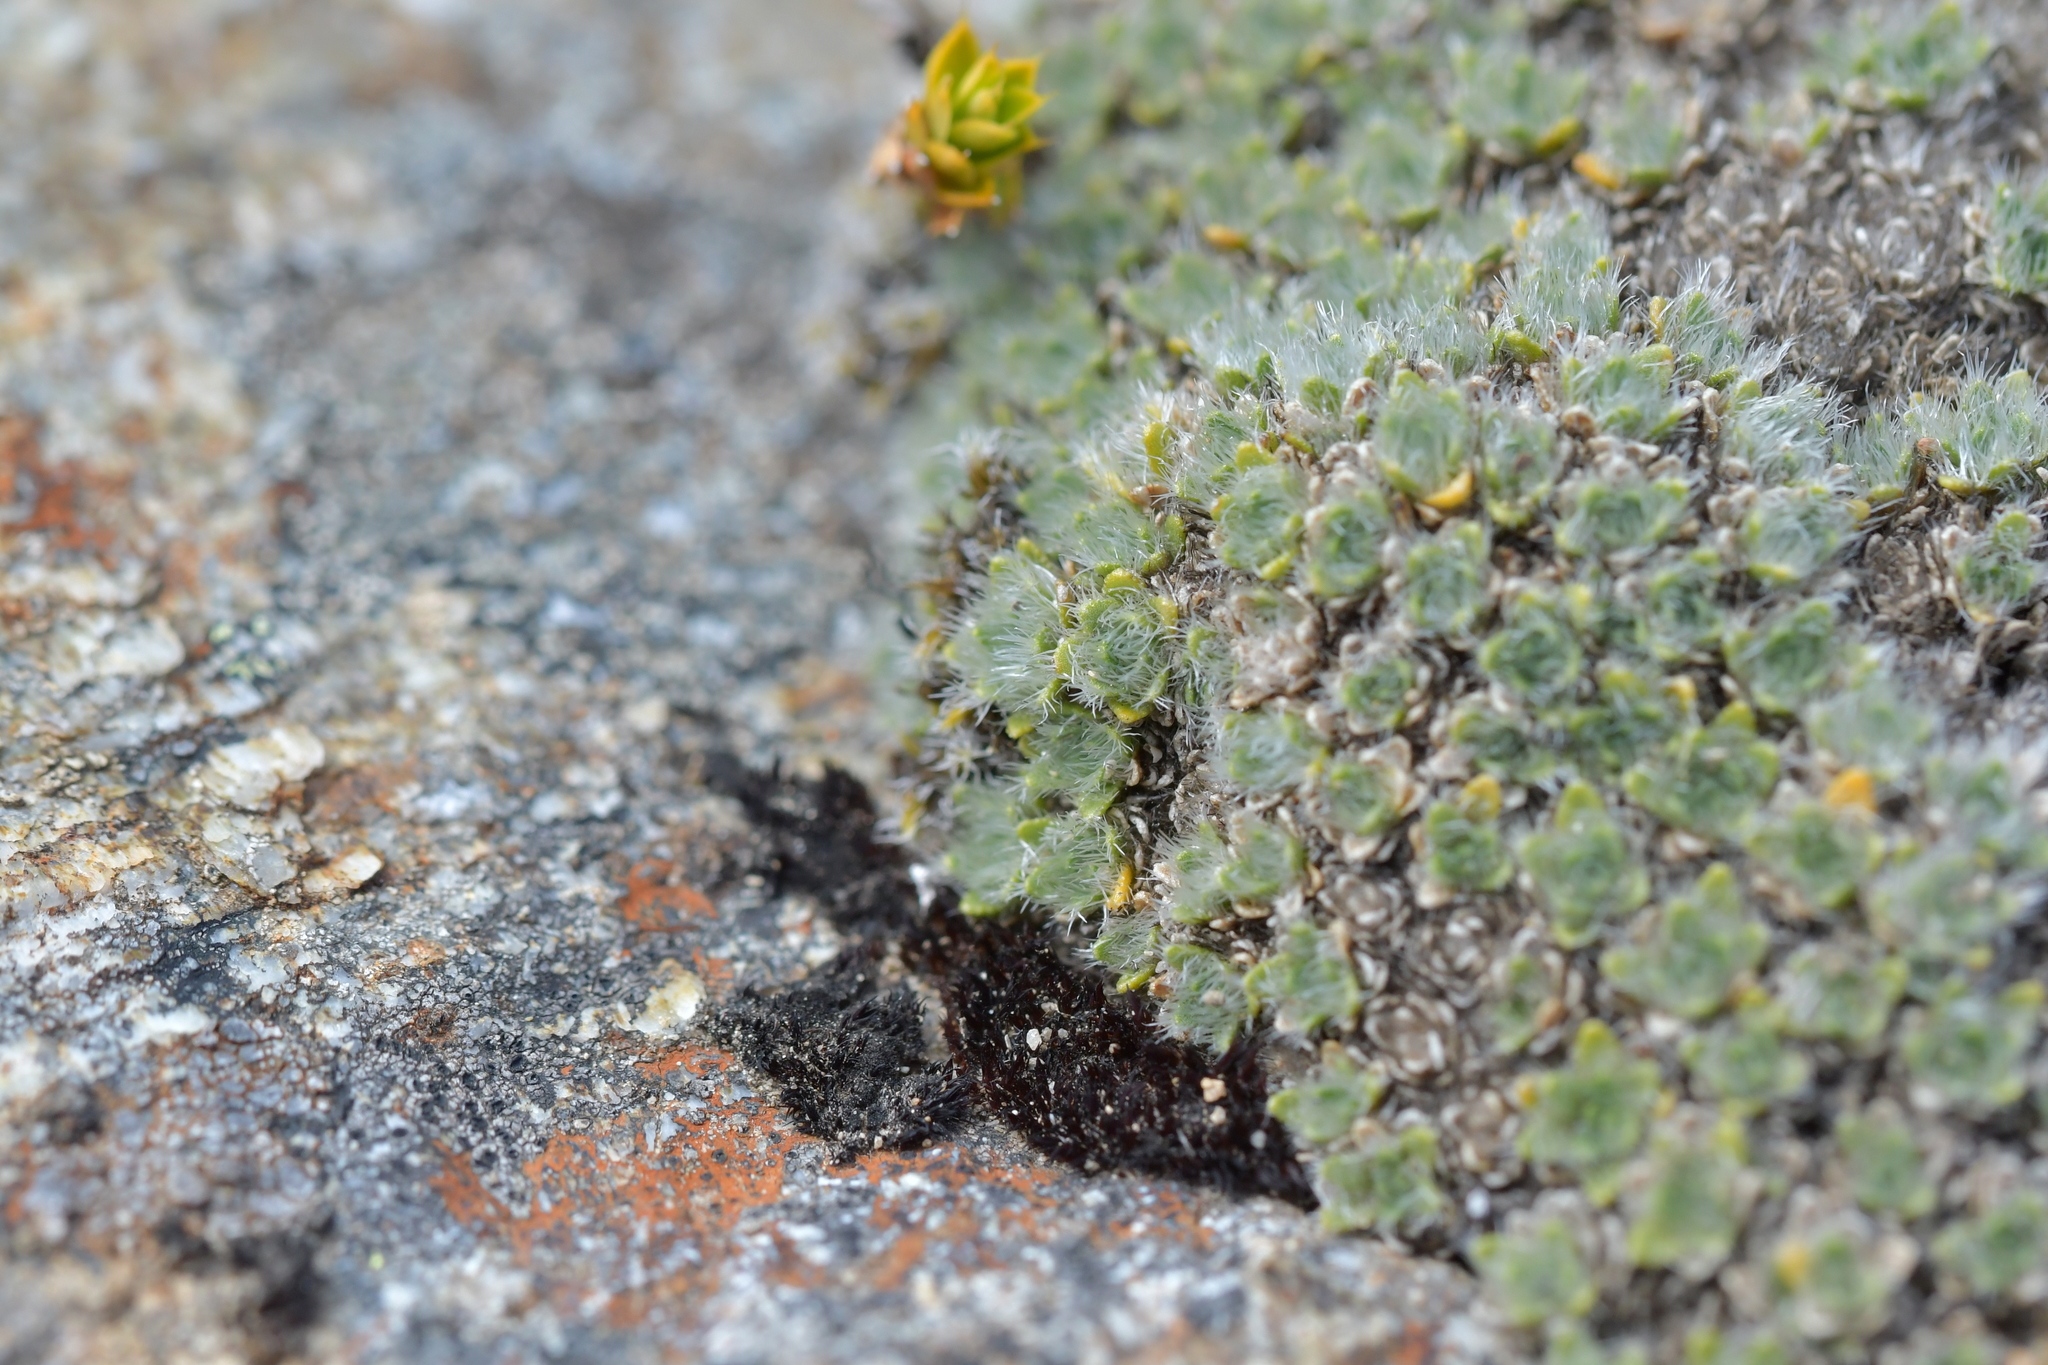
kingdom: Plantae
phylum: Tracheophyta
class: Magnoliopsida
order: Lamiales
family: Plantaginaceae
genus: Veronica
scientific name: Veronica pulvinaris
